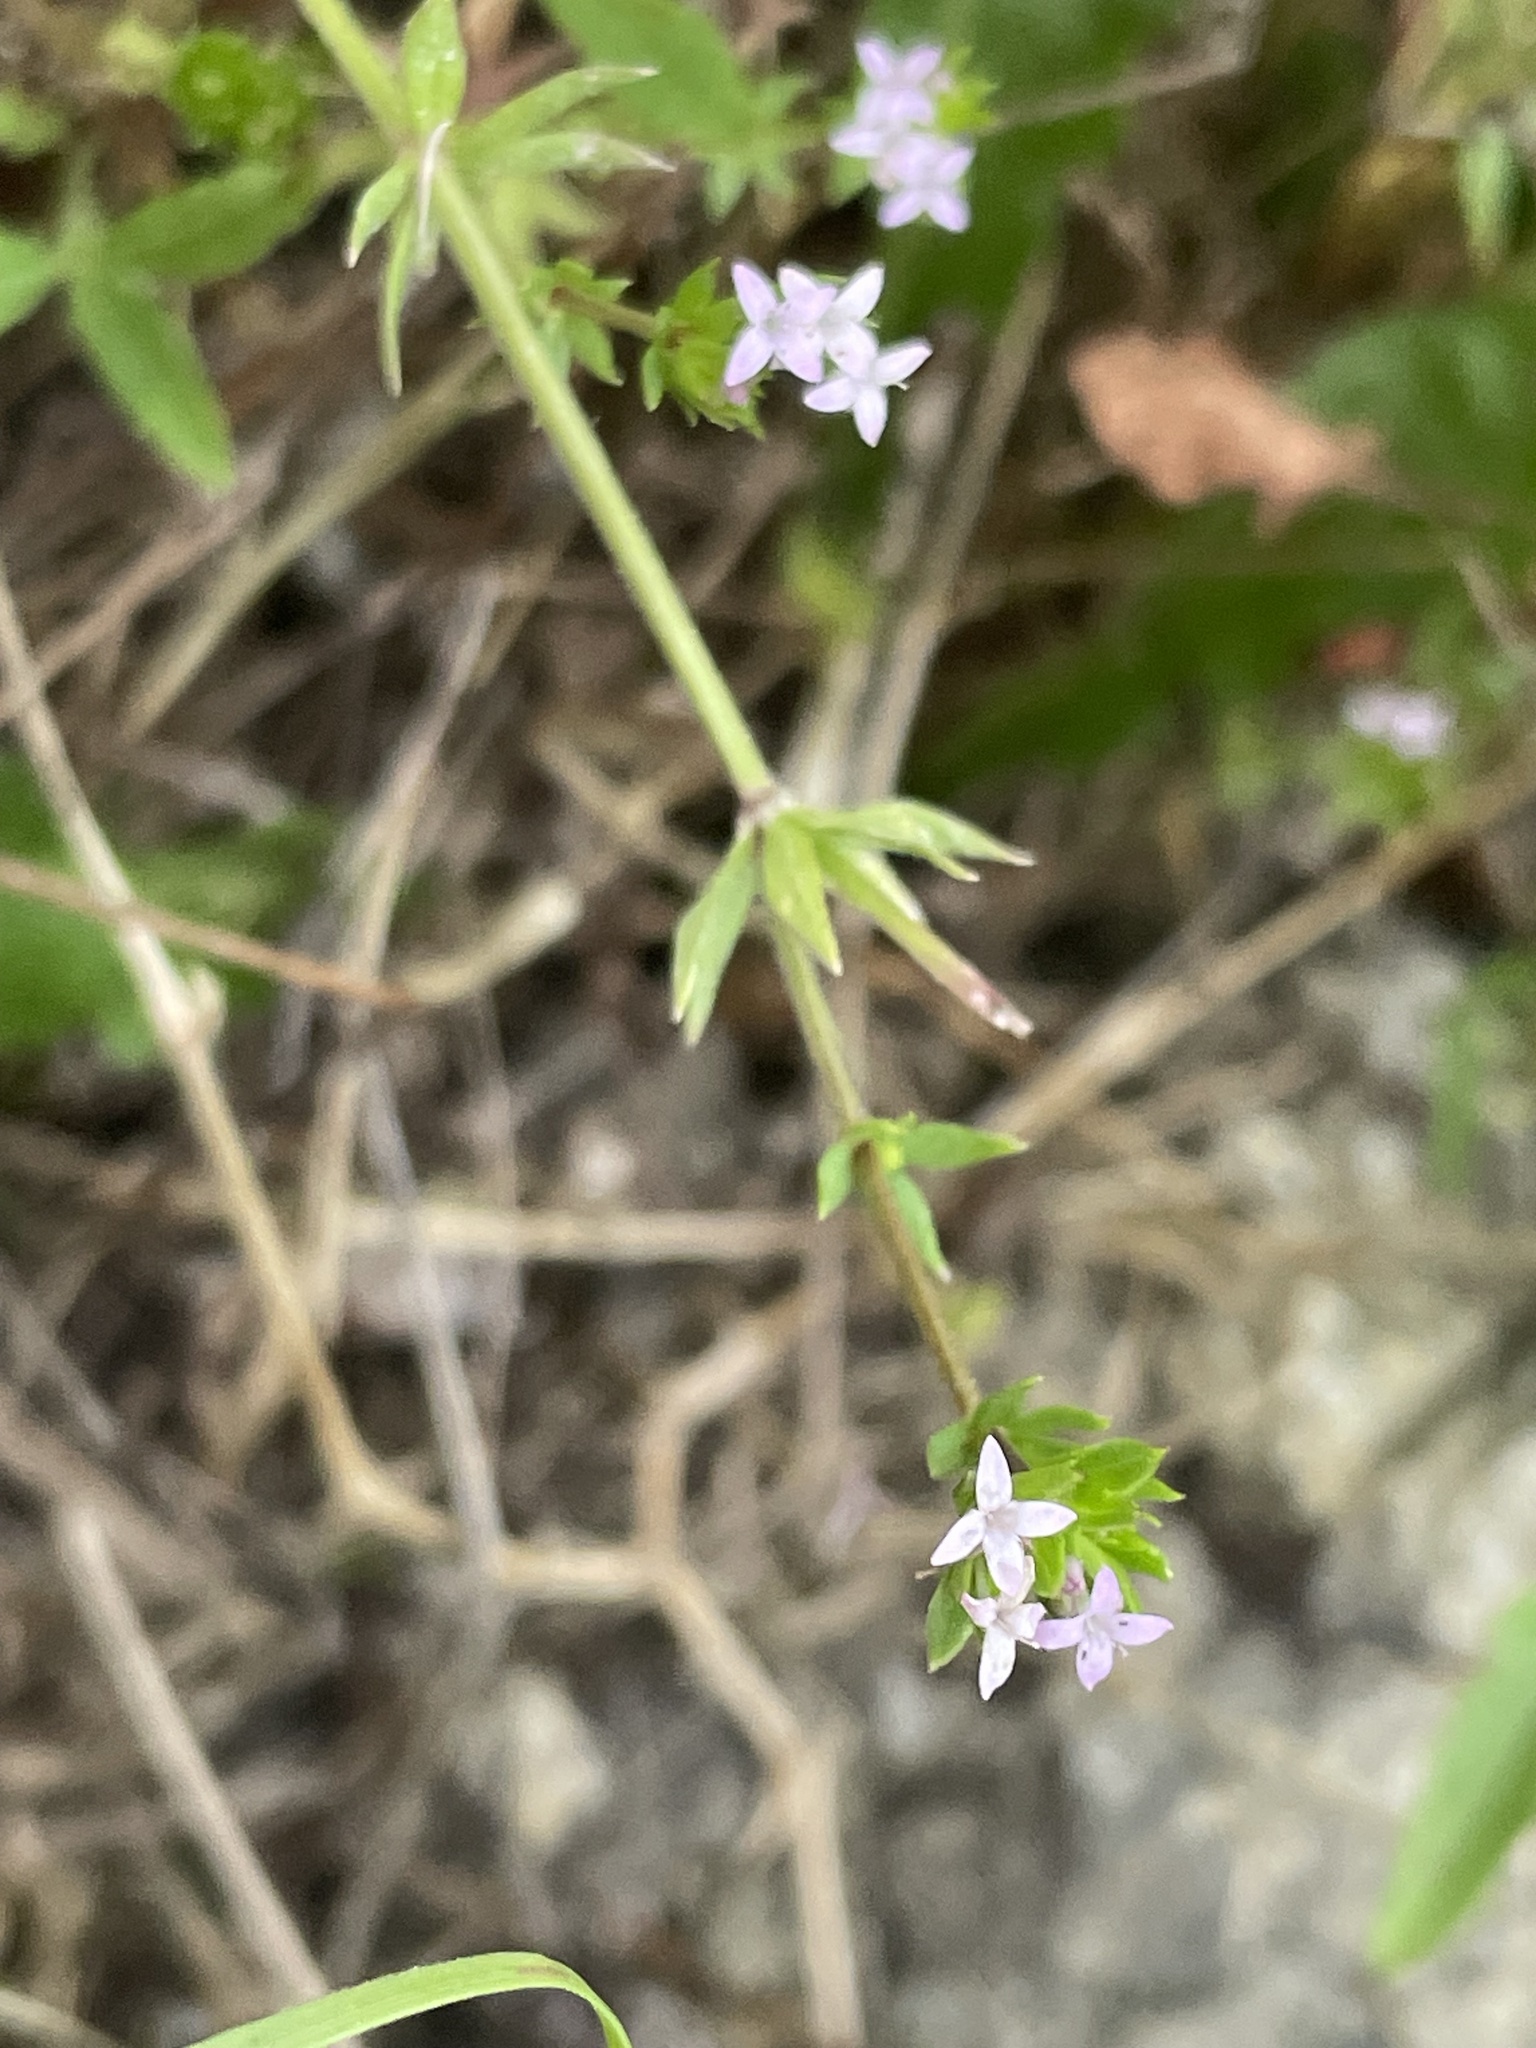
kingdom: Plantae
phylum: Tracheophyta
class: Magnoliopsida
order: Gentianales
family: Rubiaceae
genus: Sherardia
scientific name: Sherardia arvensis
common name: Field madder
